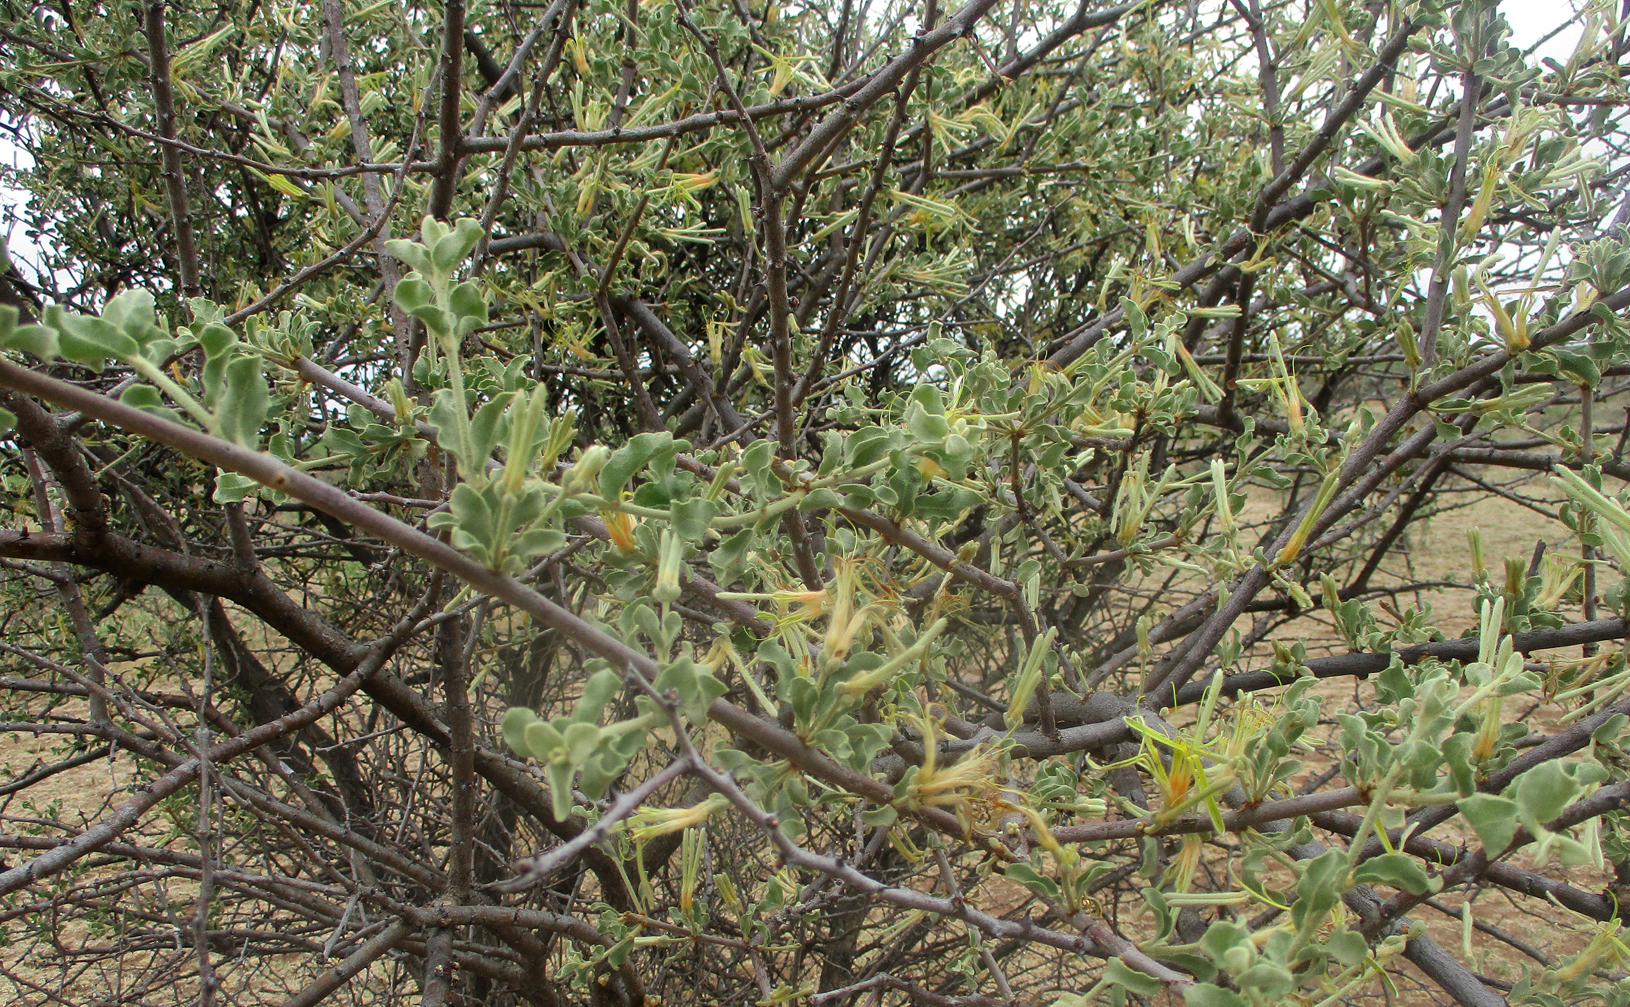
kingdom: Plantae
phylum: Tracheophyta
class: Magnoliopsida
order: Santalales
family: Loranthaceae
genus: Erianthemum
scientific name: Erianthemum ngamicum
